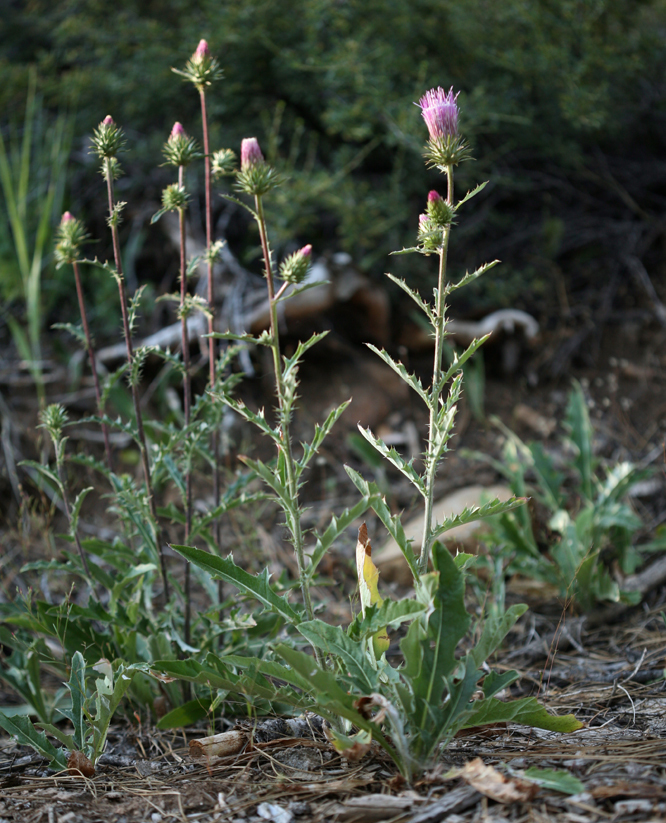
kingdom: Plantae
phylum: Tracheophyta
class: Magnoliopsida
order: Asterales
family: Asteraceae
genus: Cirsium
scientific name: Cirsium andersonii
